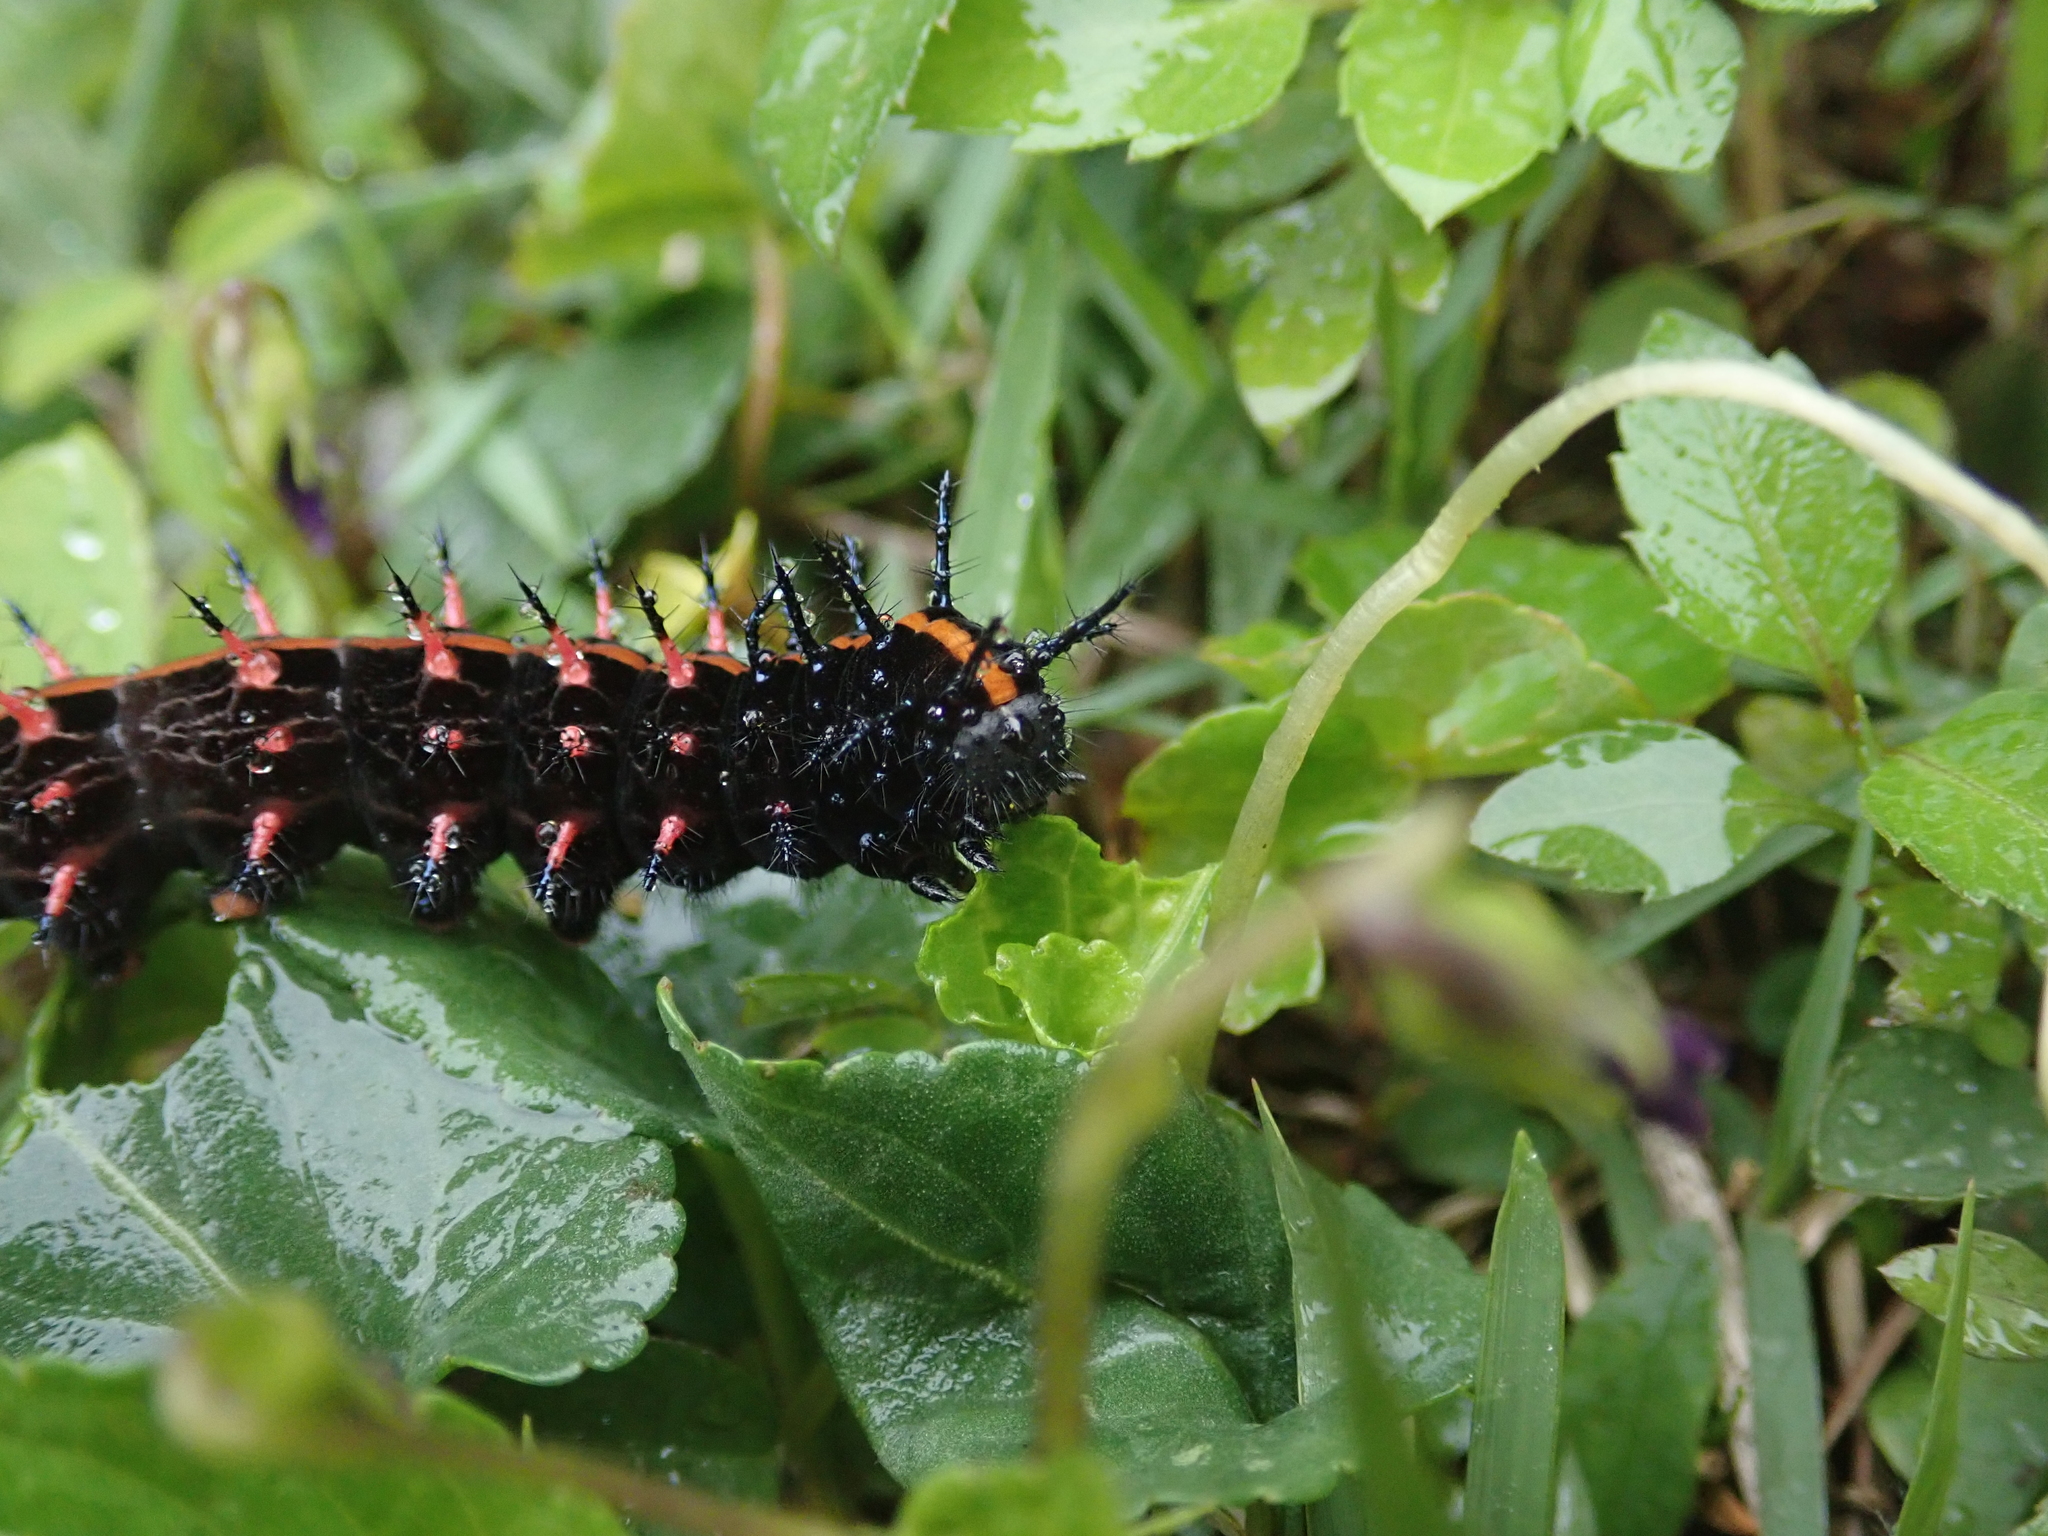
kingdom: Animalia
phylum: Arthropoda
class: Insecta
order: Lepidoptera
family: Nymphalidae
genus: Argynnis
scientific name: Argynnis hyperbius
